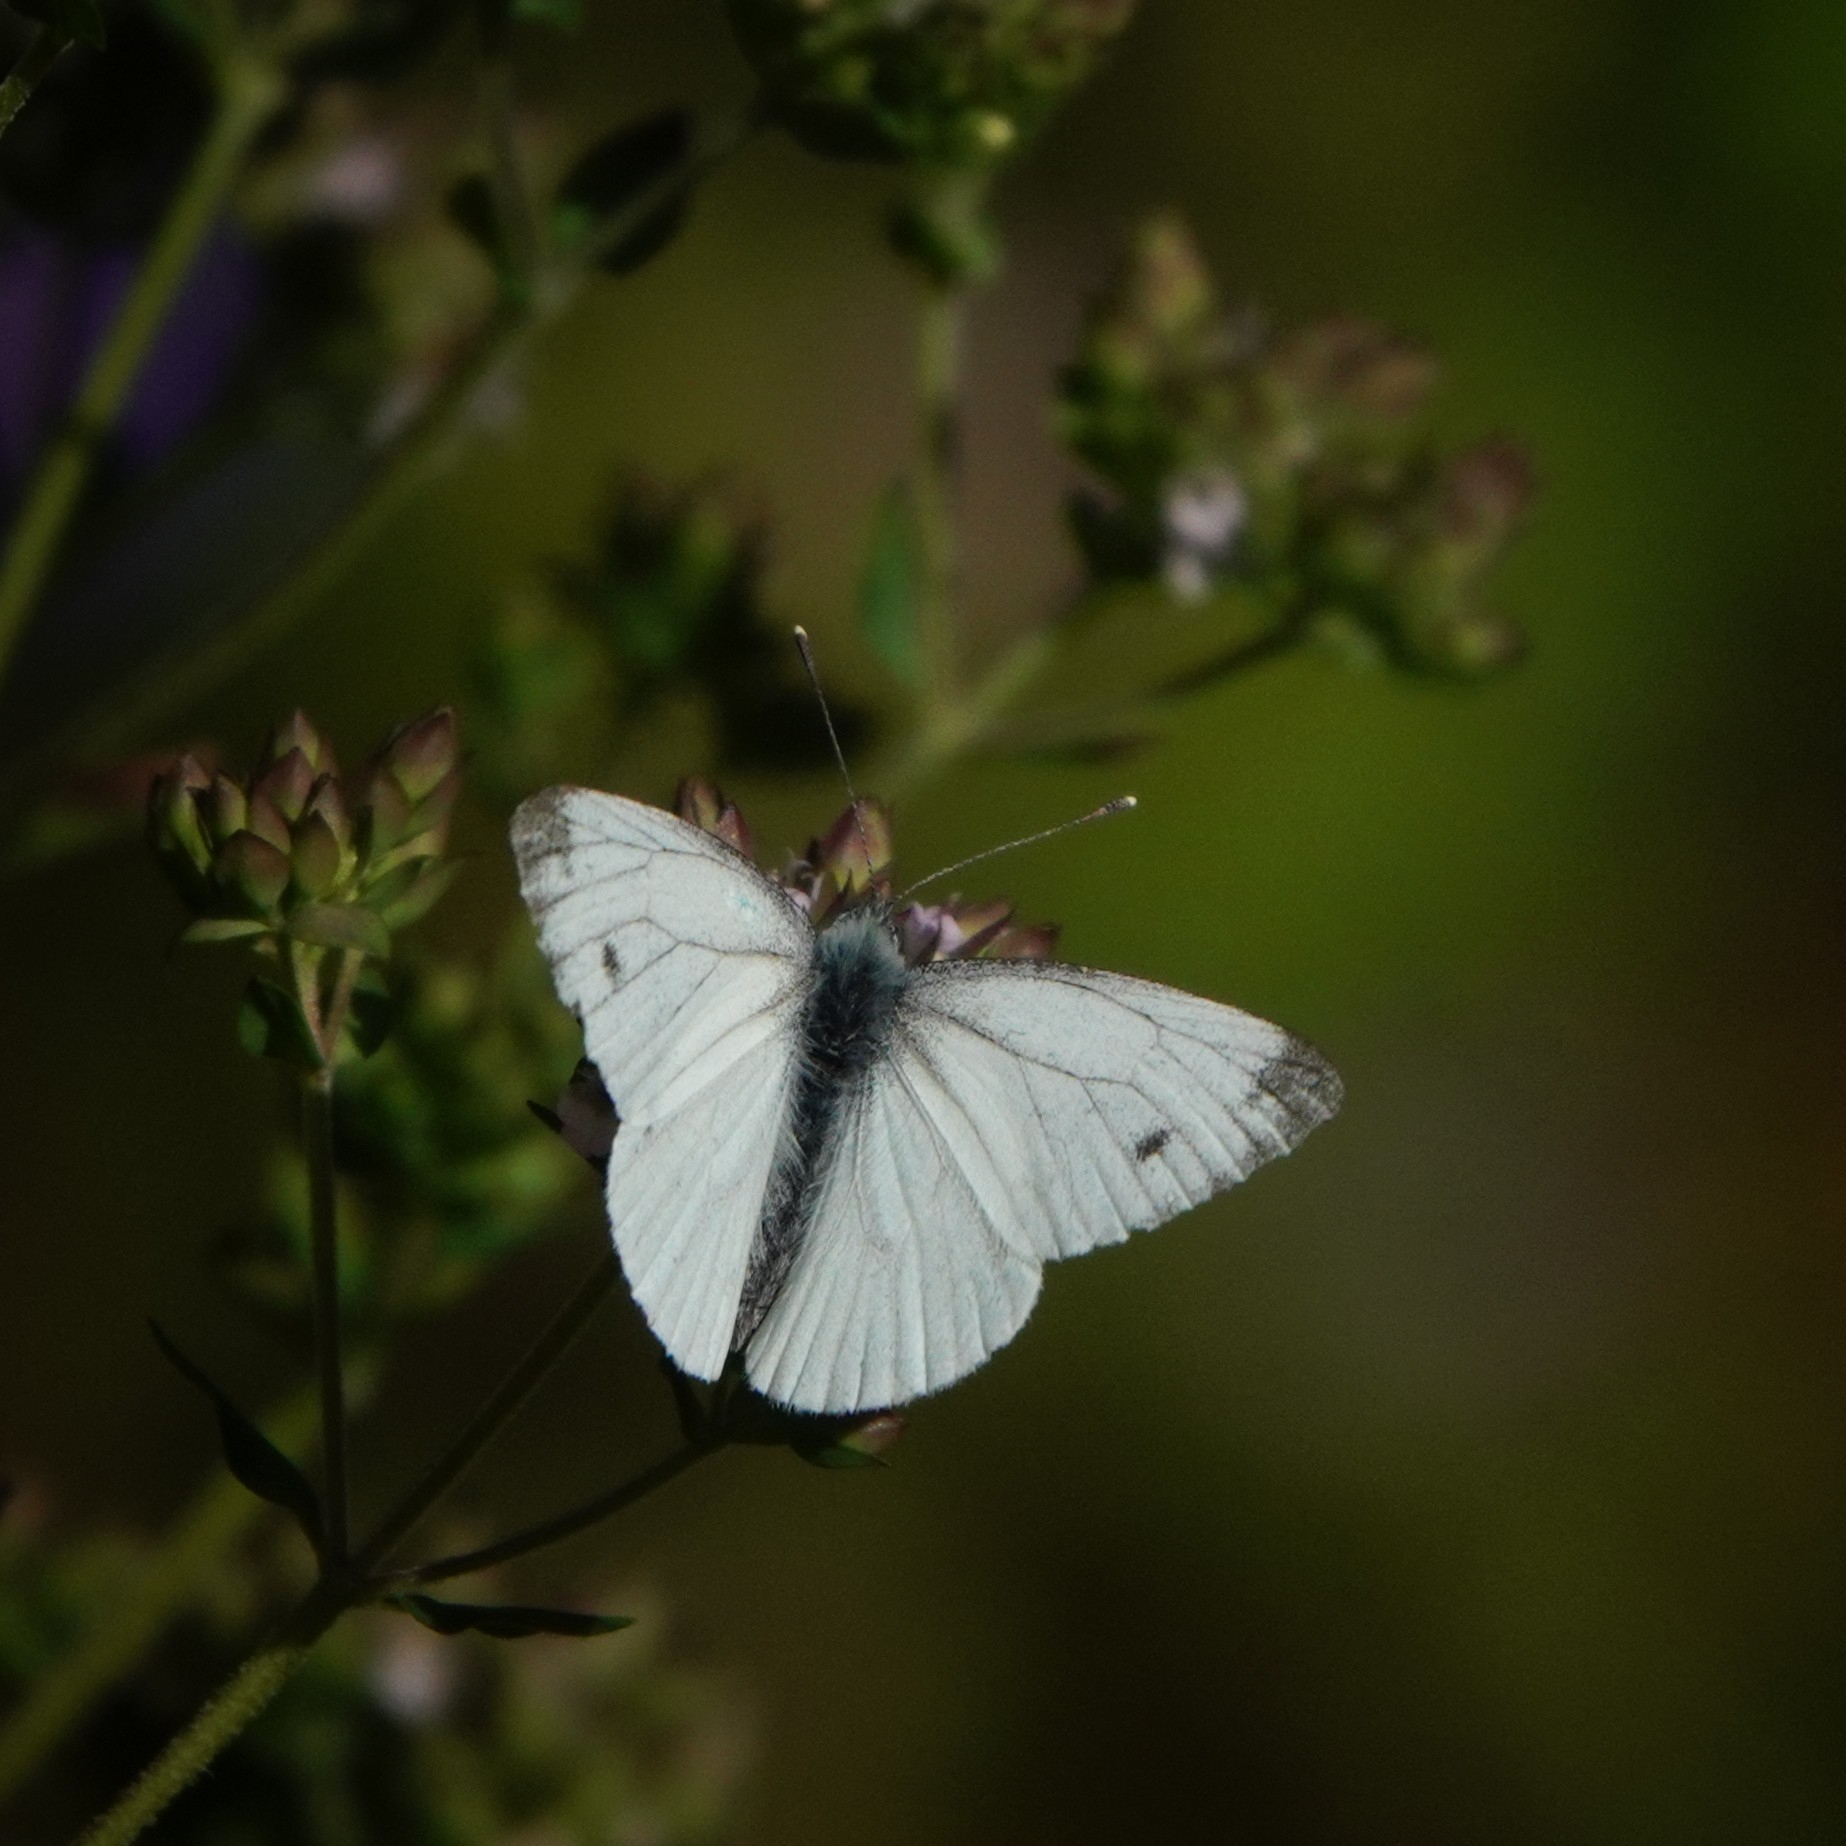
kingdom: Animalia
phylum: Arthropoda
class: Insecta
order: Lepidoptera
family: Pieridae
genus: Pieris
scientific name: Pieris napi
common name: Green-veined white
